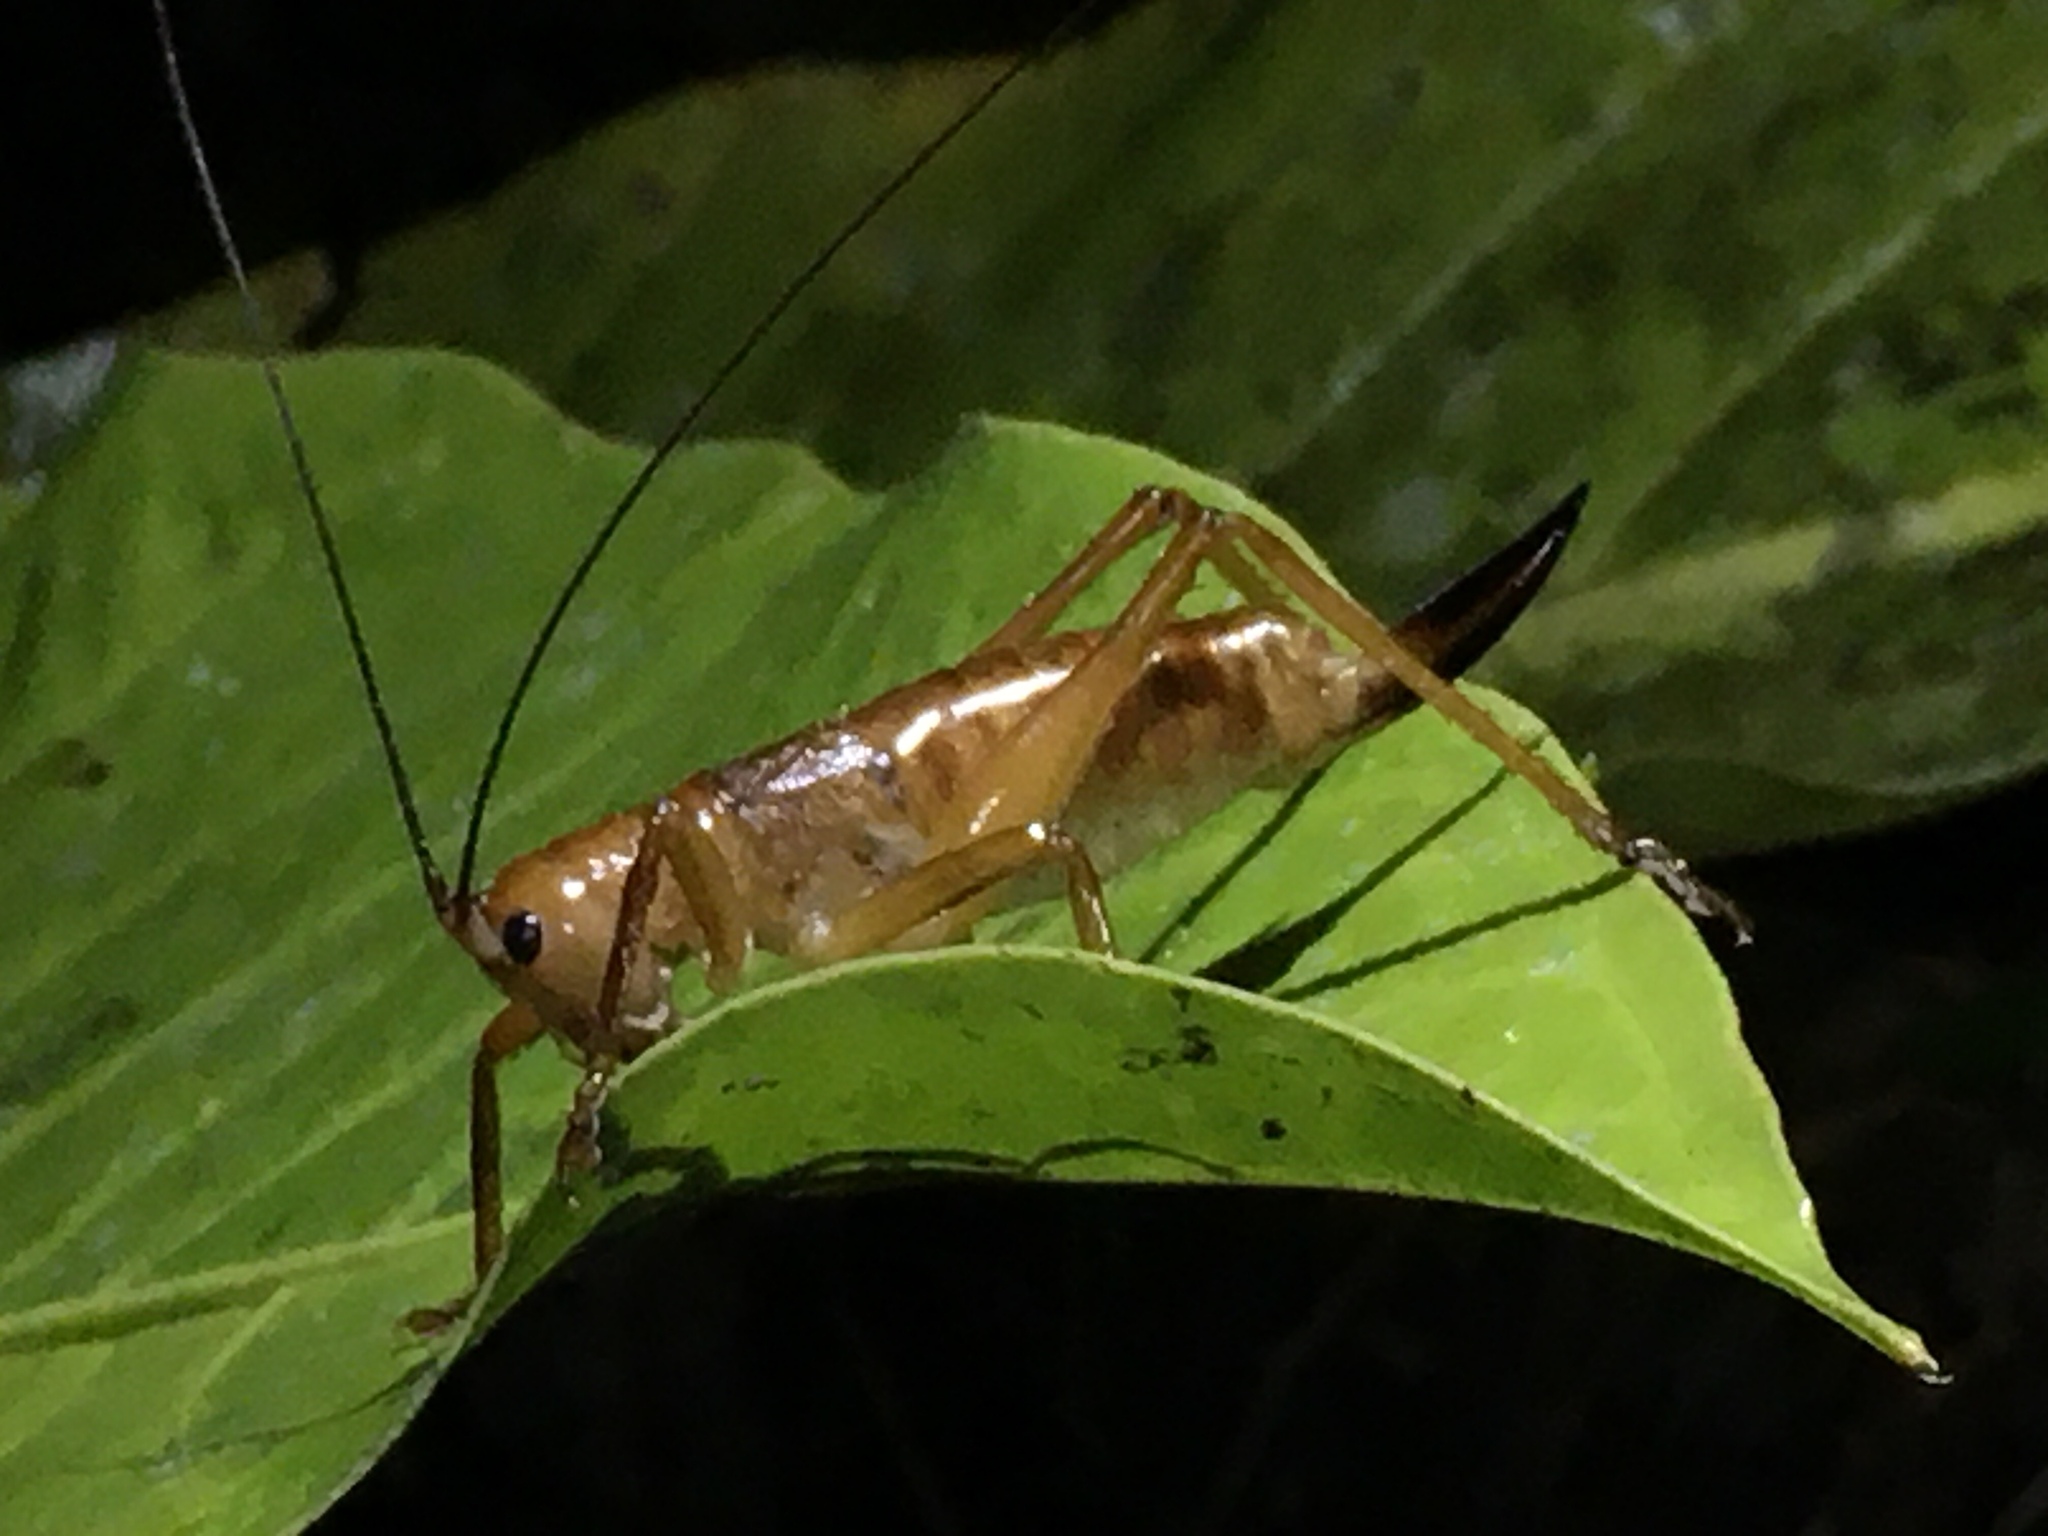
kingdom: Animalia
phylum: Arthropoda
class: Insecta
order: Orthoptera
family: Tettigoniidae
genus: Melanonotus
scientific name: Melanonotus powellorum
